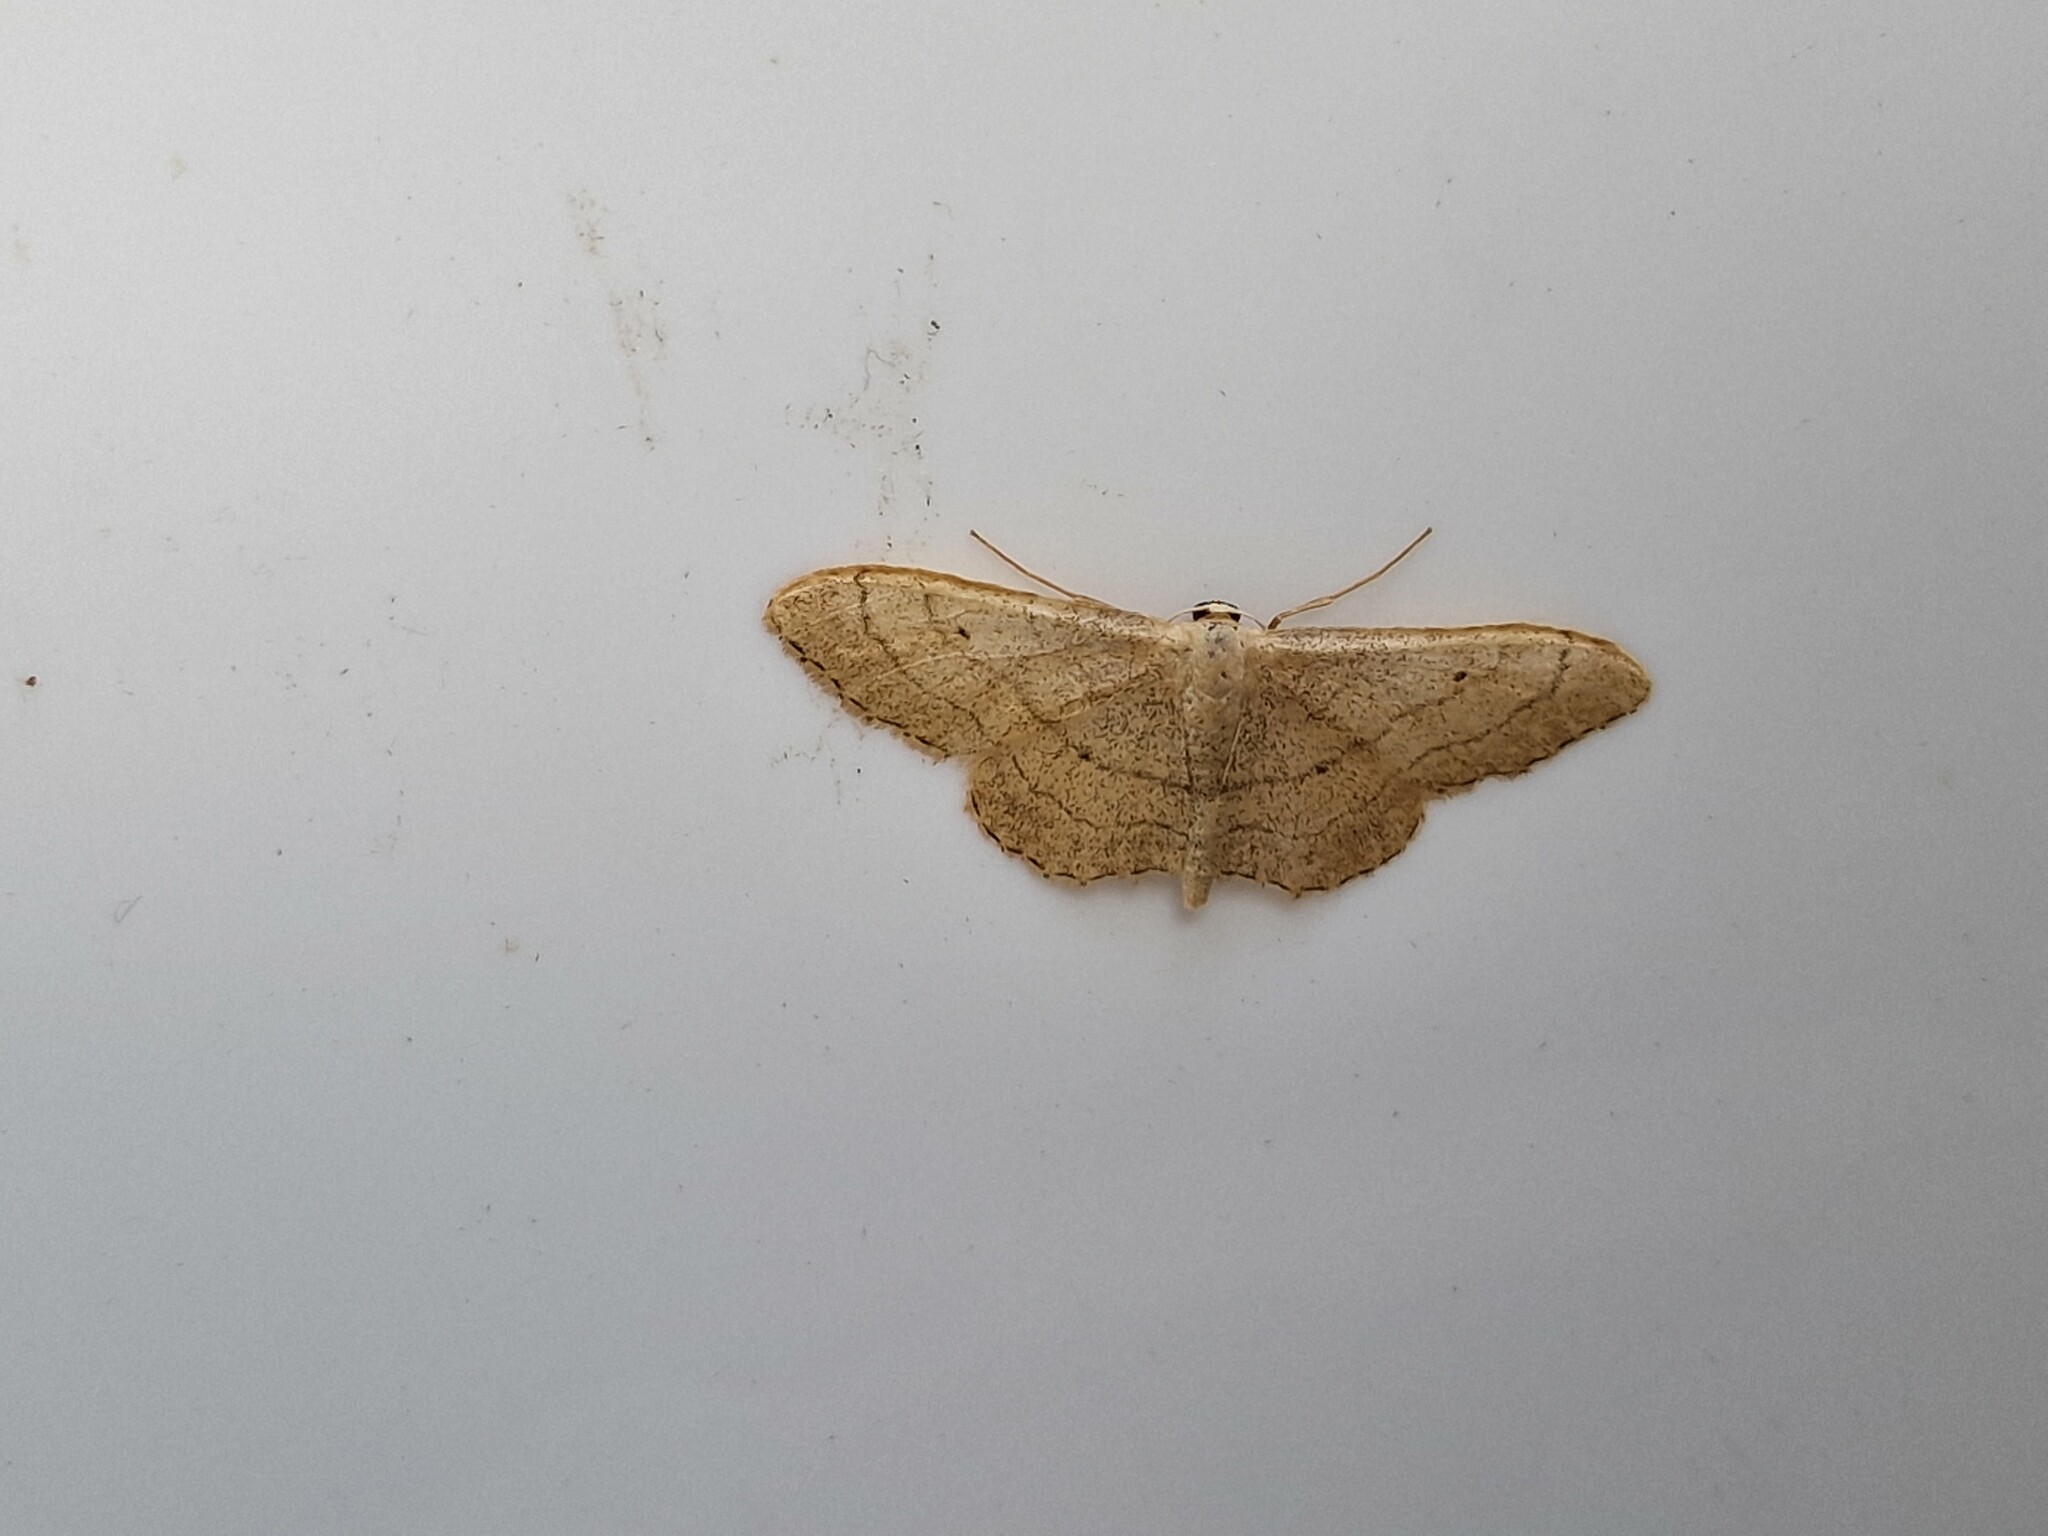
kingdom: Animalia
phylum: Arthropoda
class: Insecta
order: Lepidoptera
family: Geometridae
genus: Idaea
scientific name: Idaea aversata
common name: Riband wave
